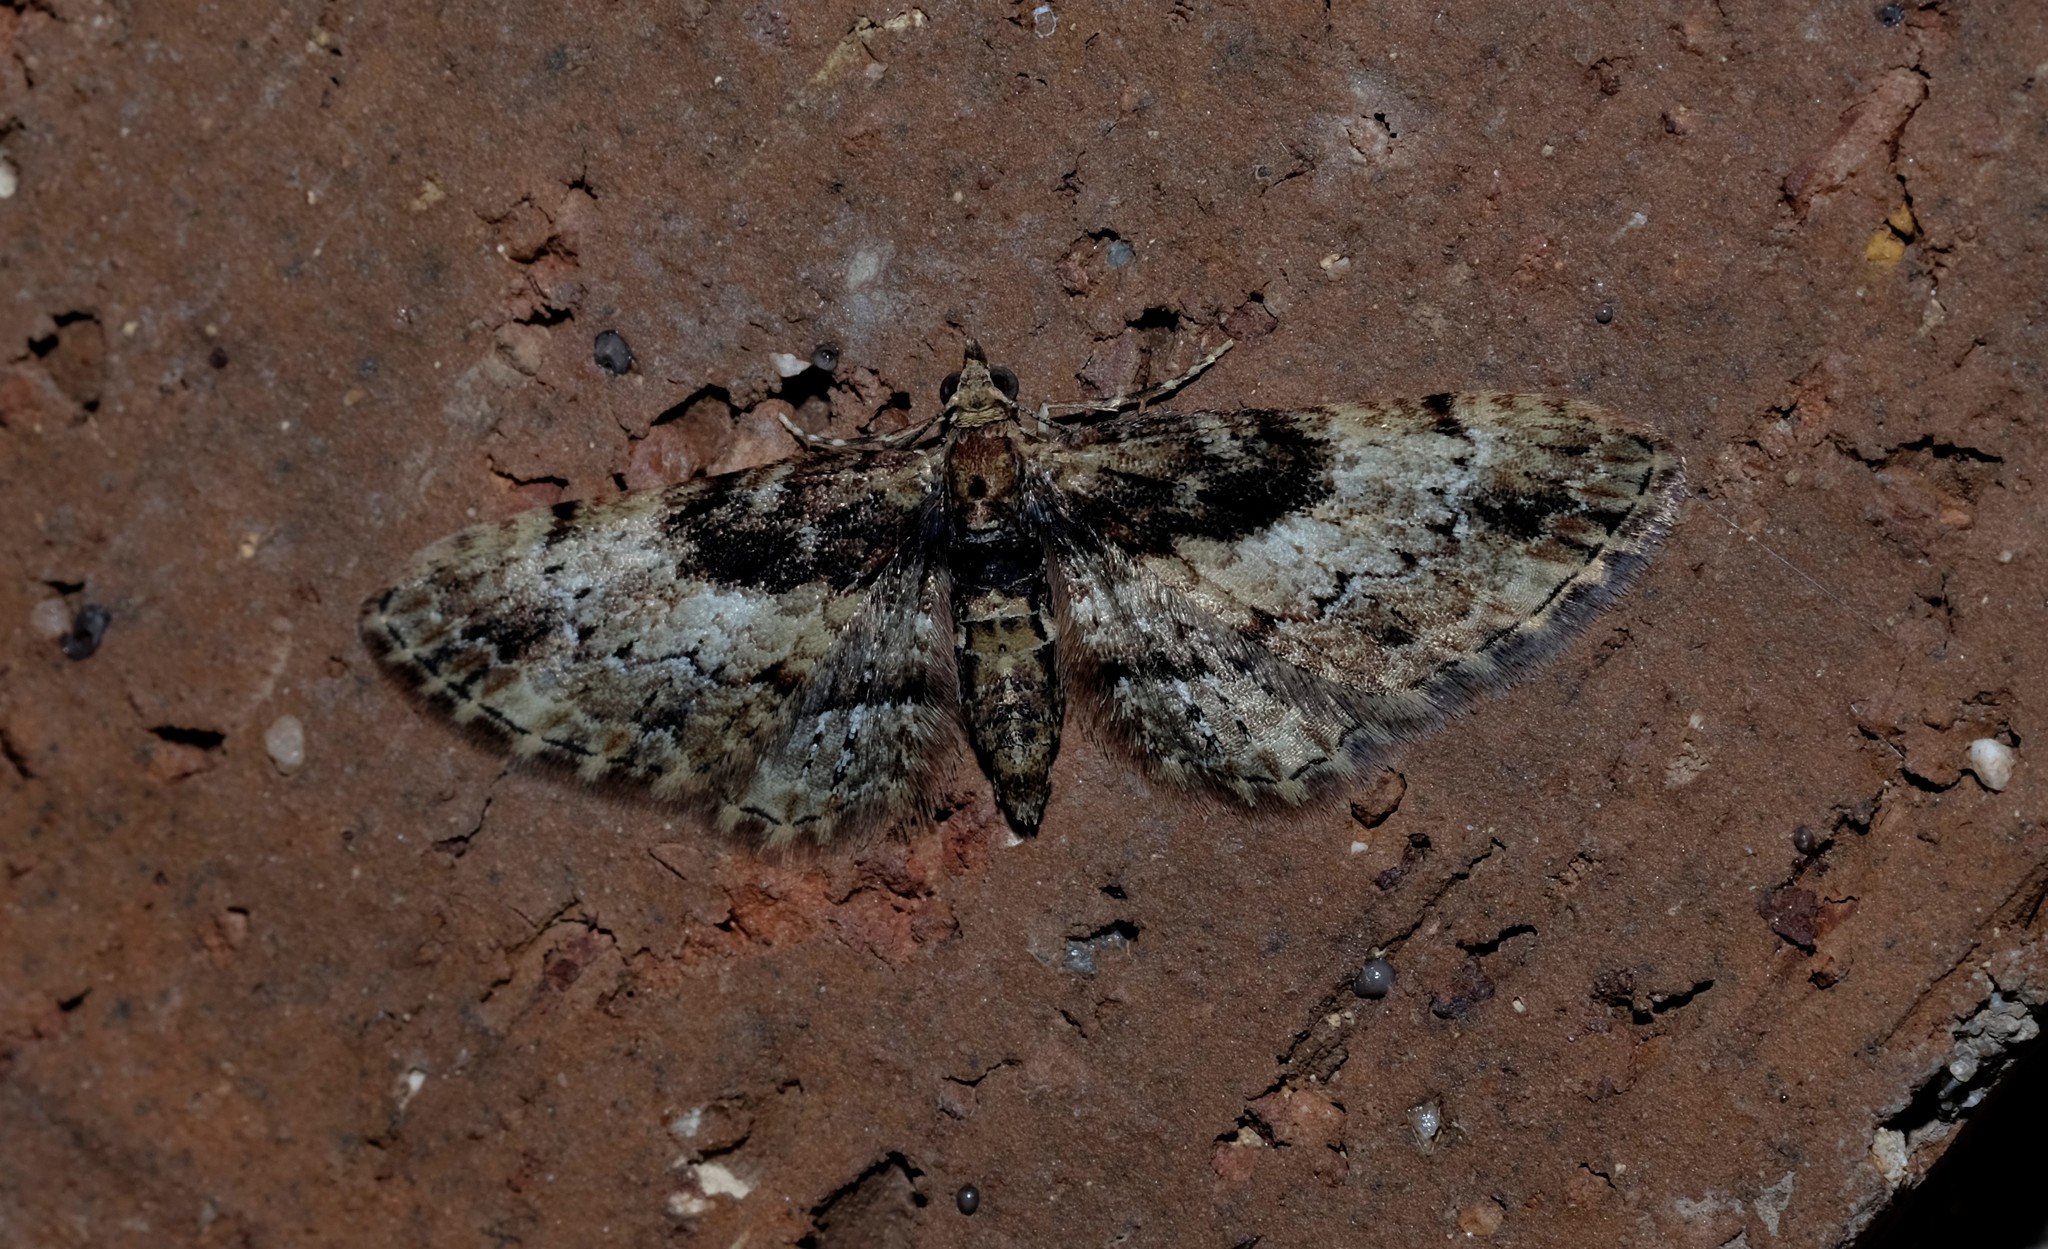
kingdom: Animalia
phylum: Arthropoda
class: Insecta
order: Lepidoptera
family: Geometridae
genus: Chloroclystis
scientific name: Chloroclystis approximata
